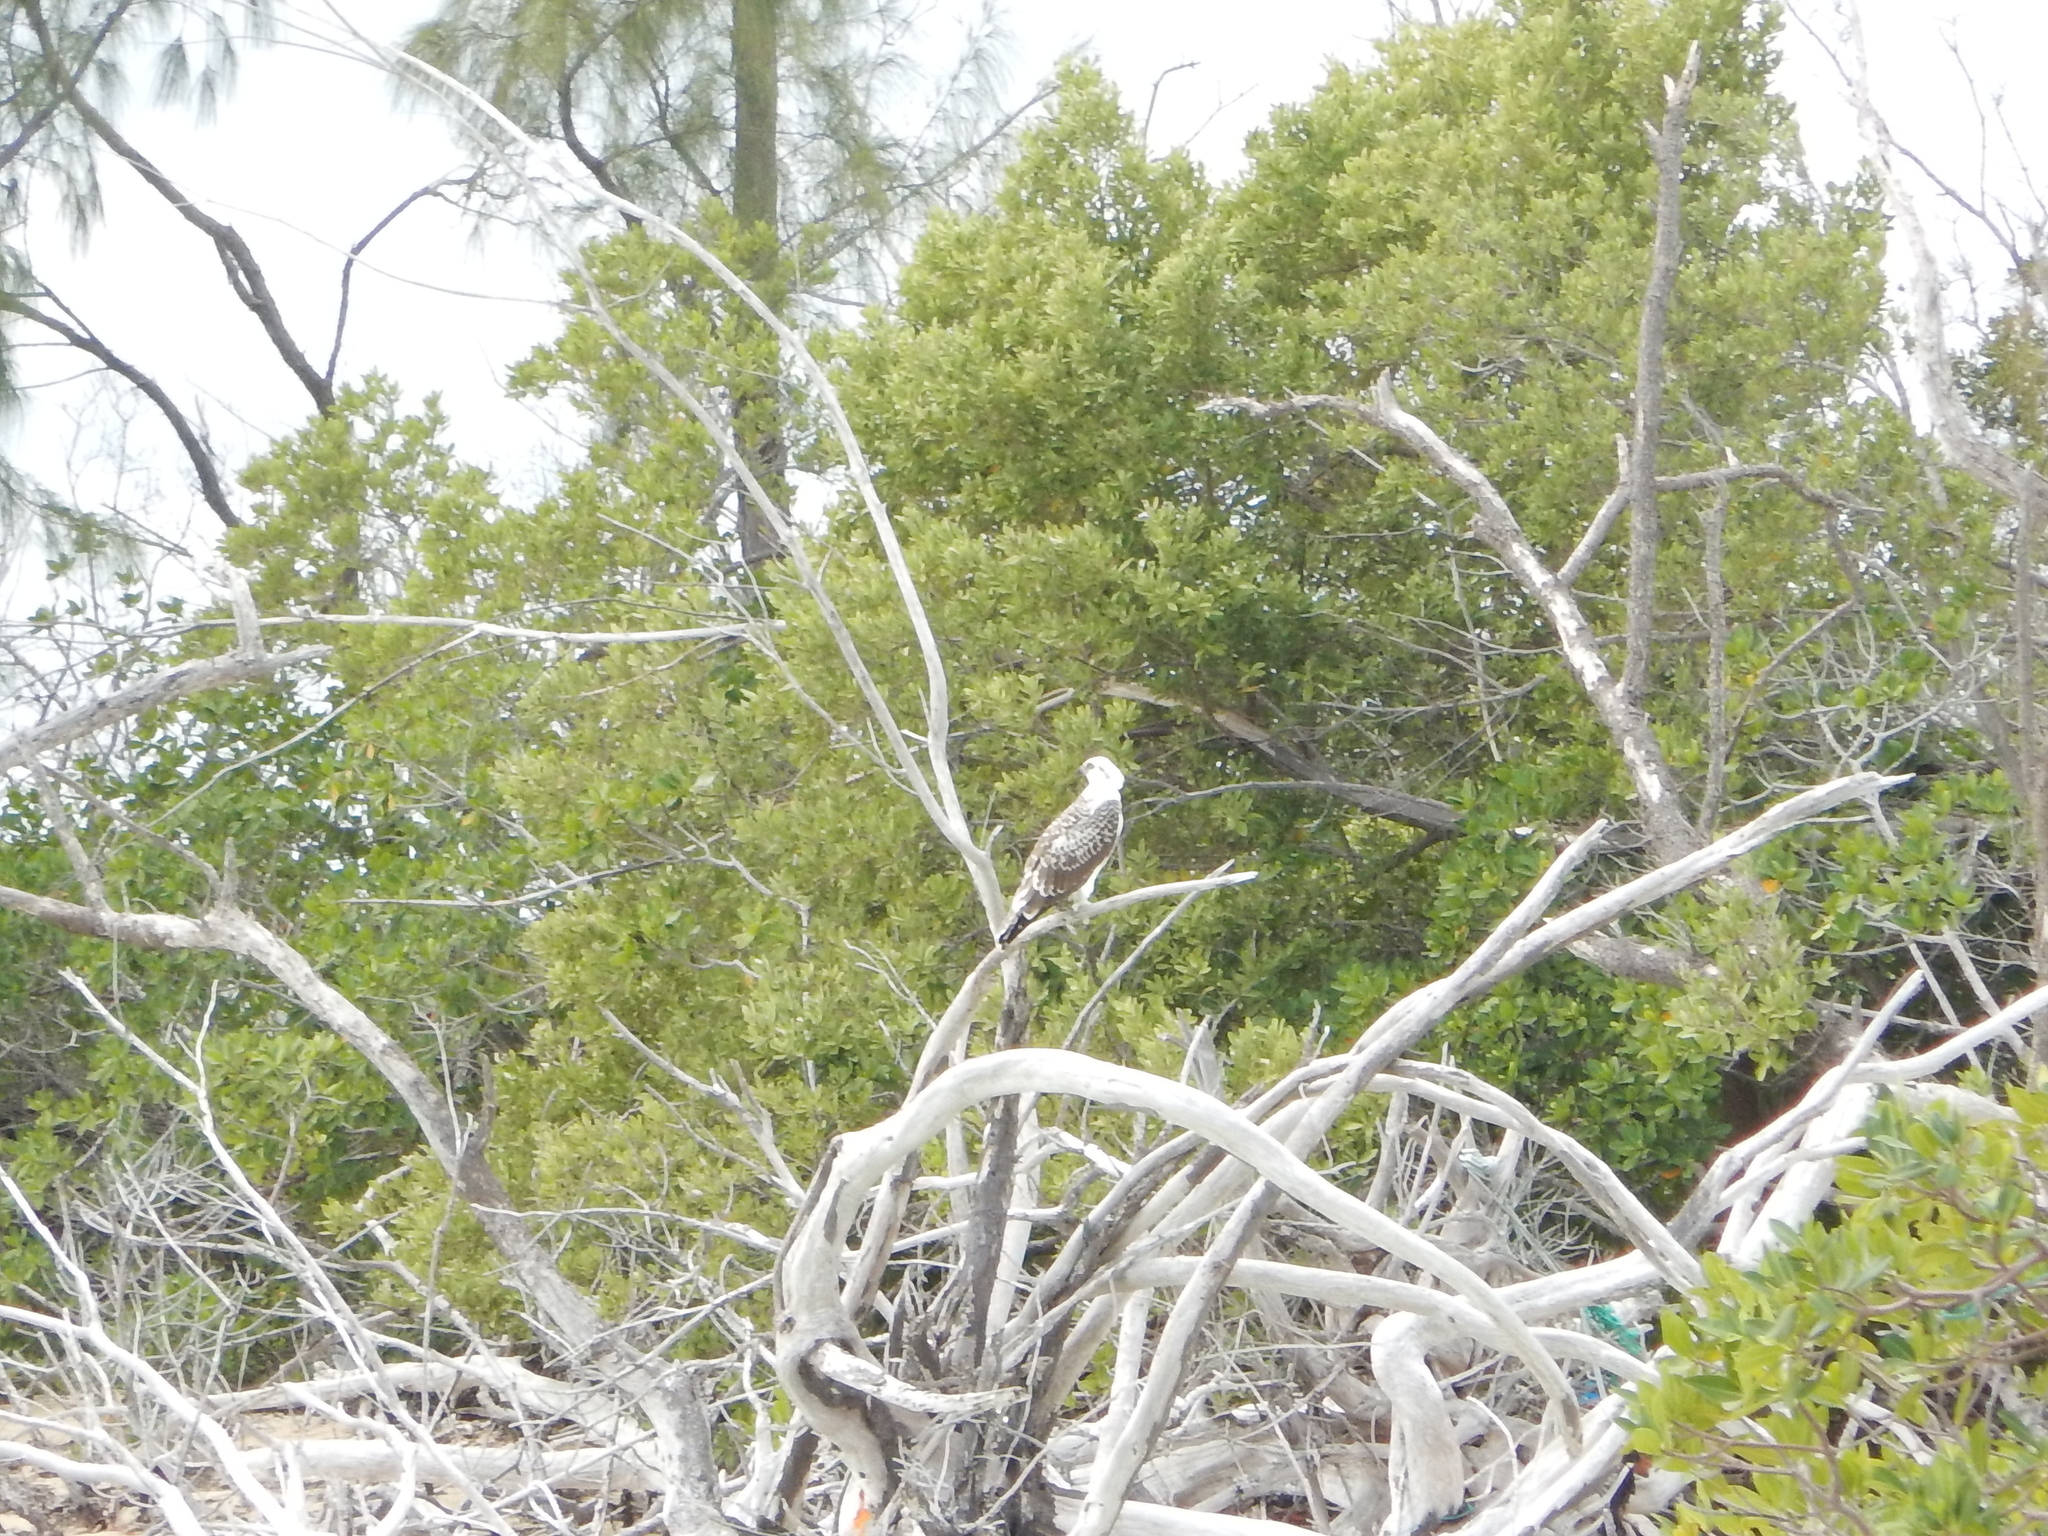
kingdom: Animalia
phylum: Chordata
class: Aves
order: Accipitriformes
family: Pandionidae
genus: Pandion
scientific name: Pandion haliaetus
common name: Osprey
